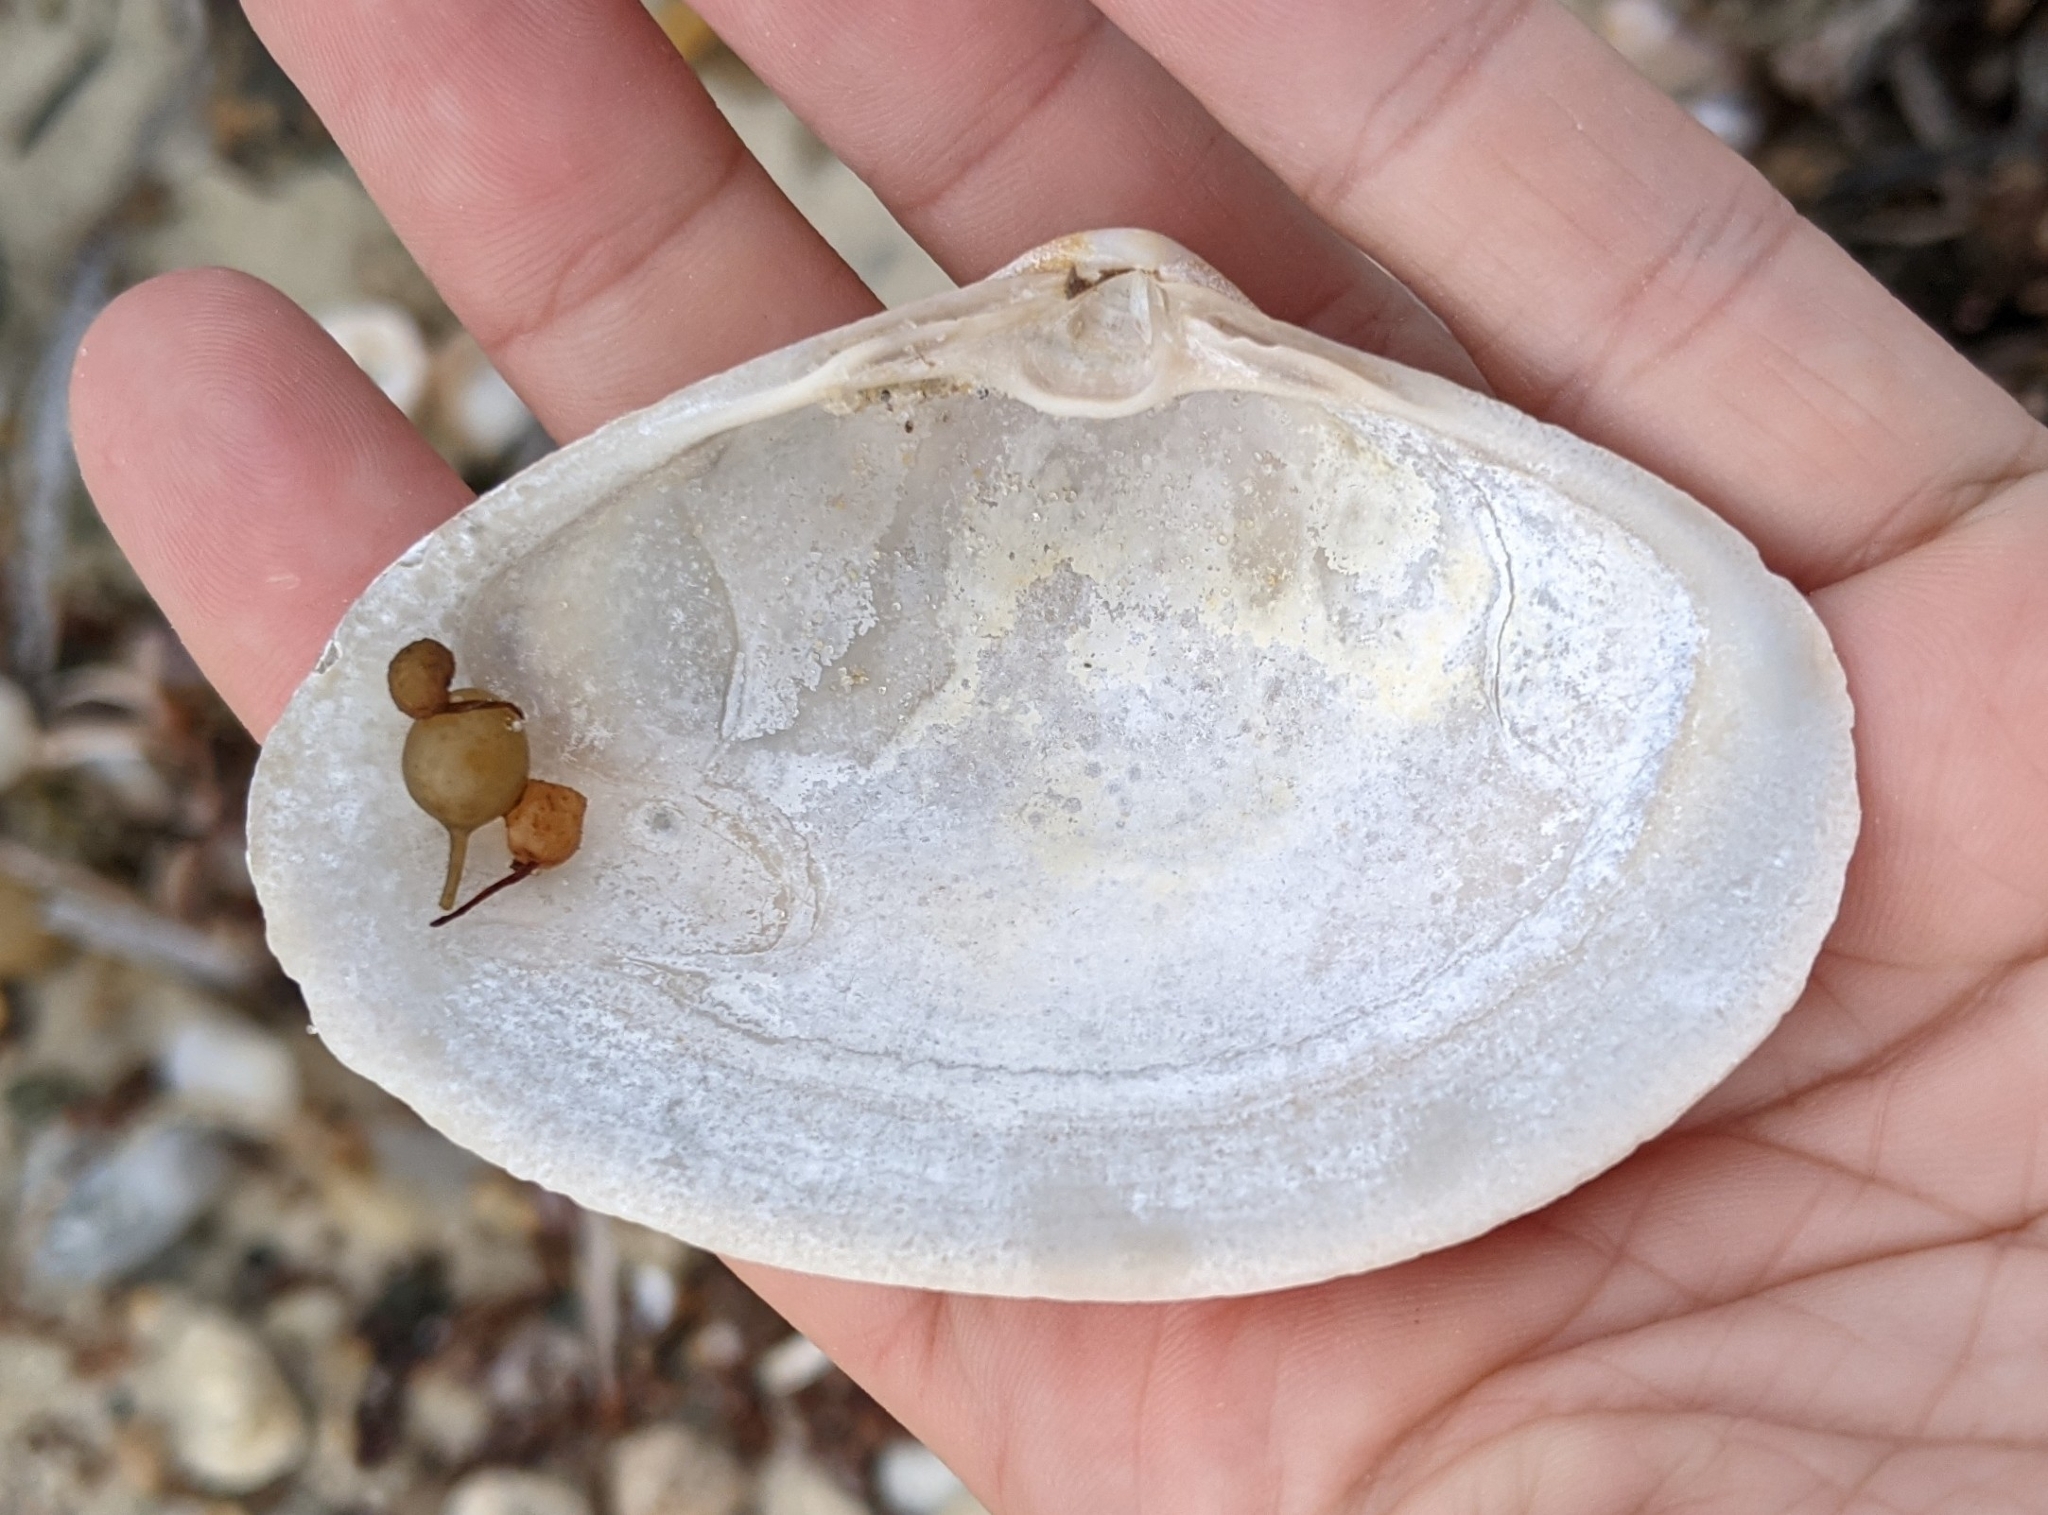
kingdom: Animalia
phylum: Mollusca
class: Bivalvia
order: Venerida
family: Mactridae
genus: Spisula
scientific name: Spisula solidissima
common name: Atlantic surf clam
